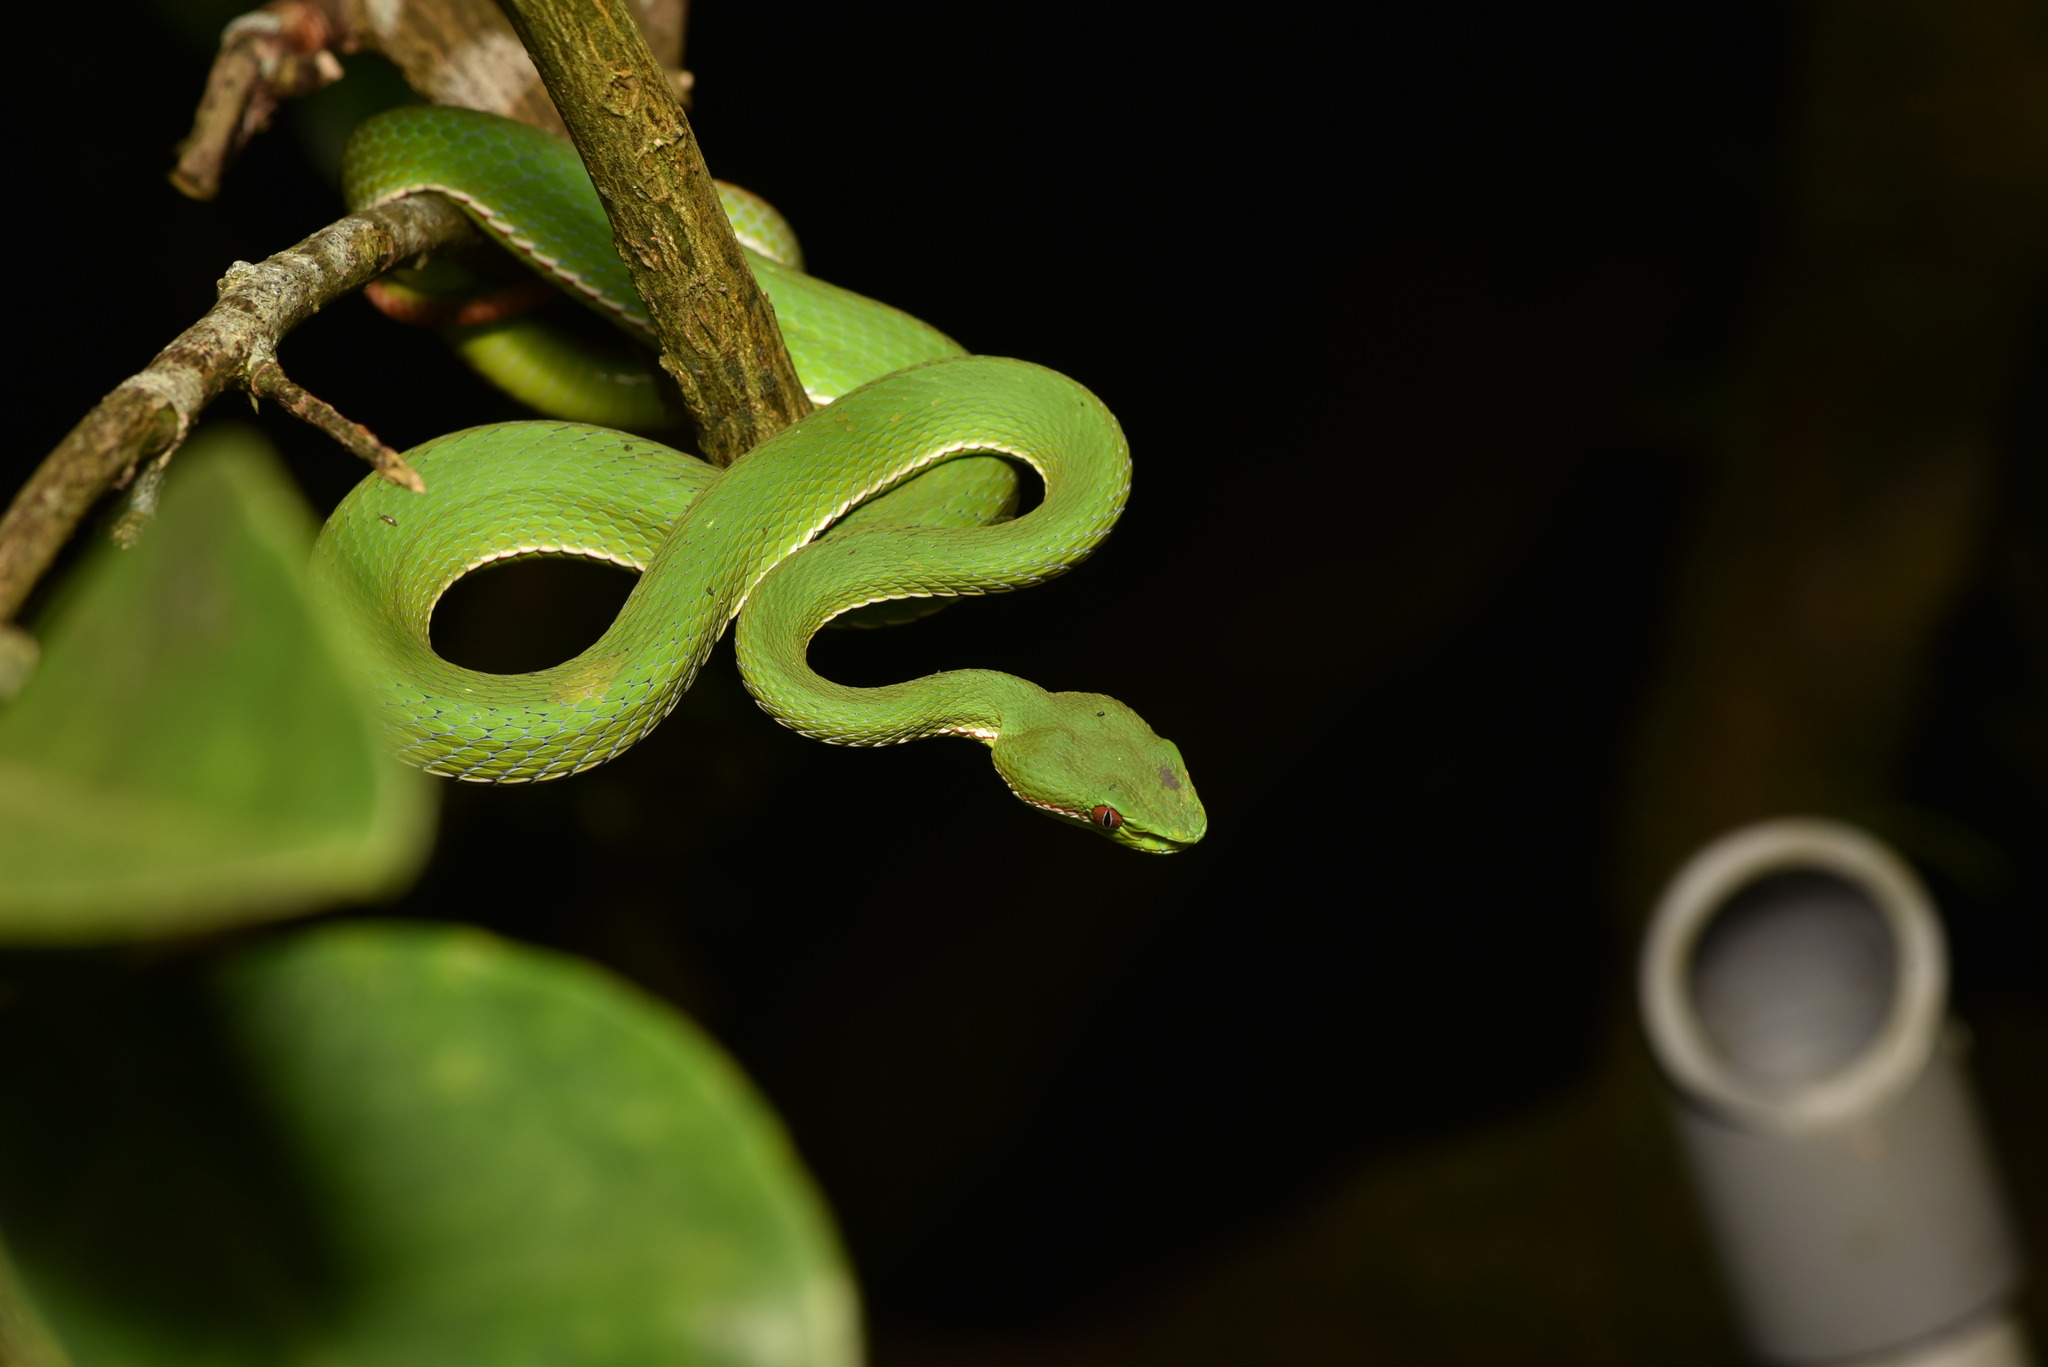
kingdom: Animalia
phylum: Chordata
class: Squamata
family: Viperidae
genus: Trimeresurus
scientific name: Trimeresurus stejnegeri
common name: Chen’s bamboo pit viper
